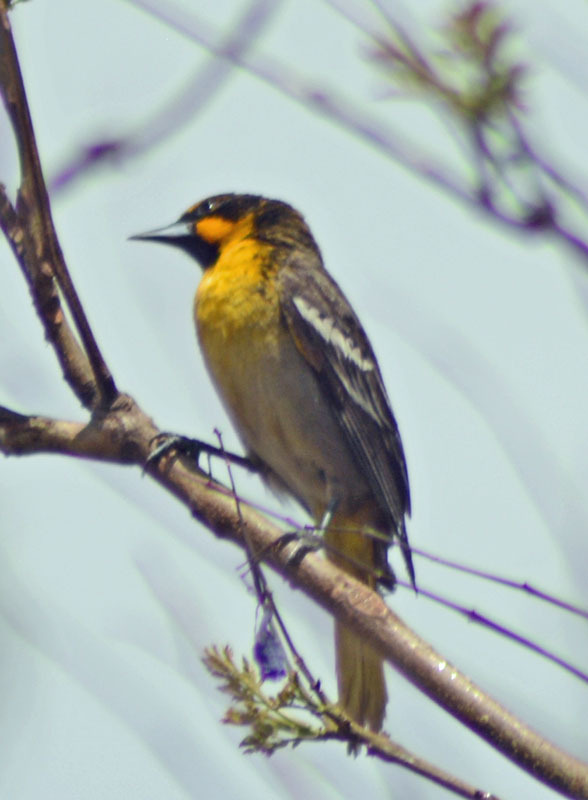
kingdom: Animalia
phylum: Chordata
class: Aves
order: Passeriformes
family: Icteridae
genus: Icterus
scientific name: Icterus abeillei
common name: Black-backed oriole
